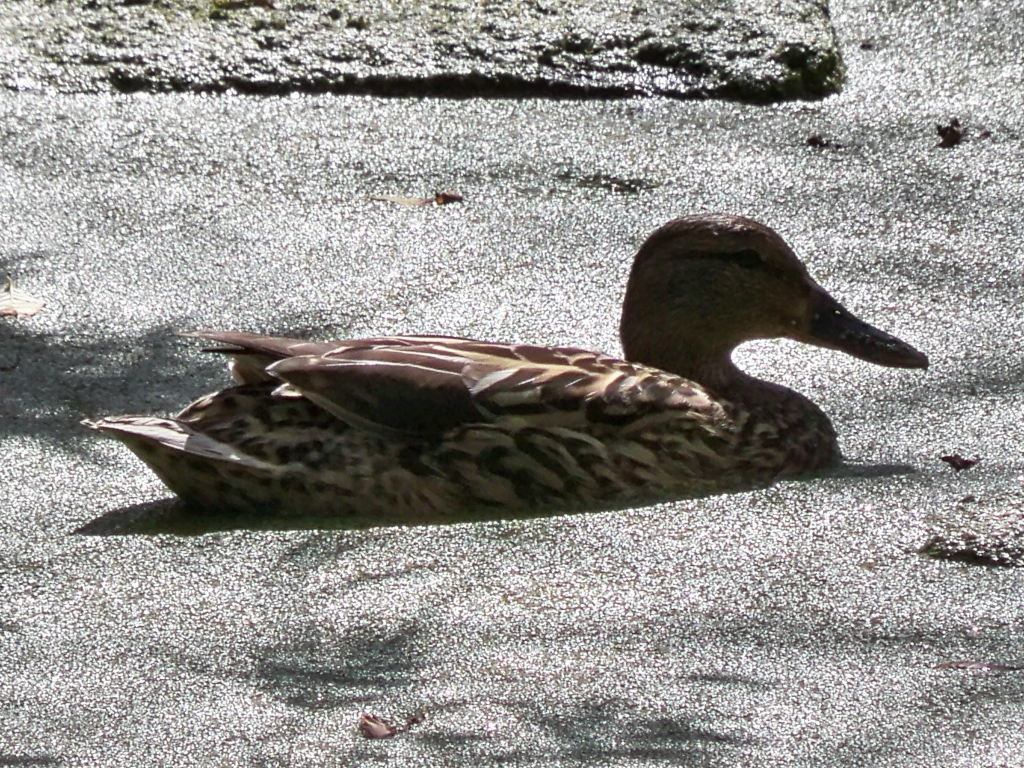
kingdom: Animalia
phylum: Chordata
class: Aves
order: Anseriformes
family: Anatidae
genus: Anas
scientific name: Anas platyrhynchos
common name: Mallard
